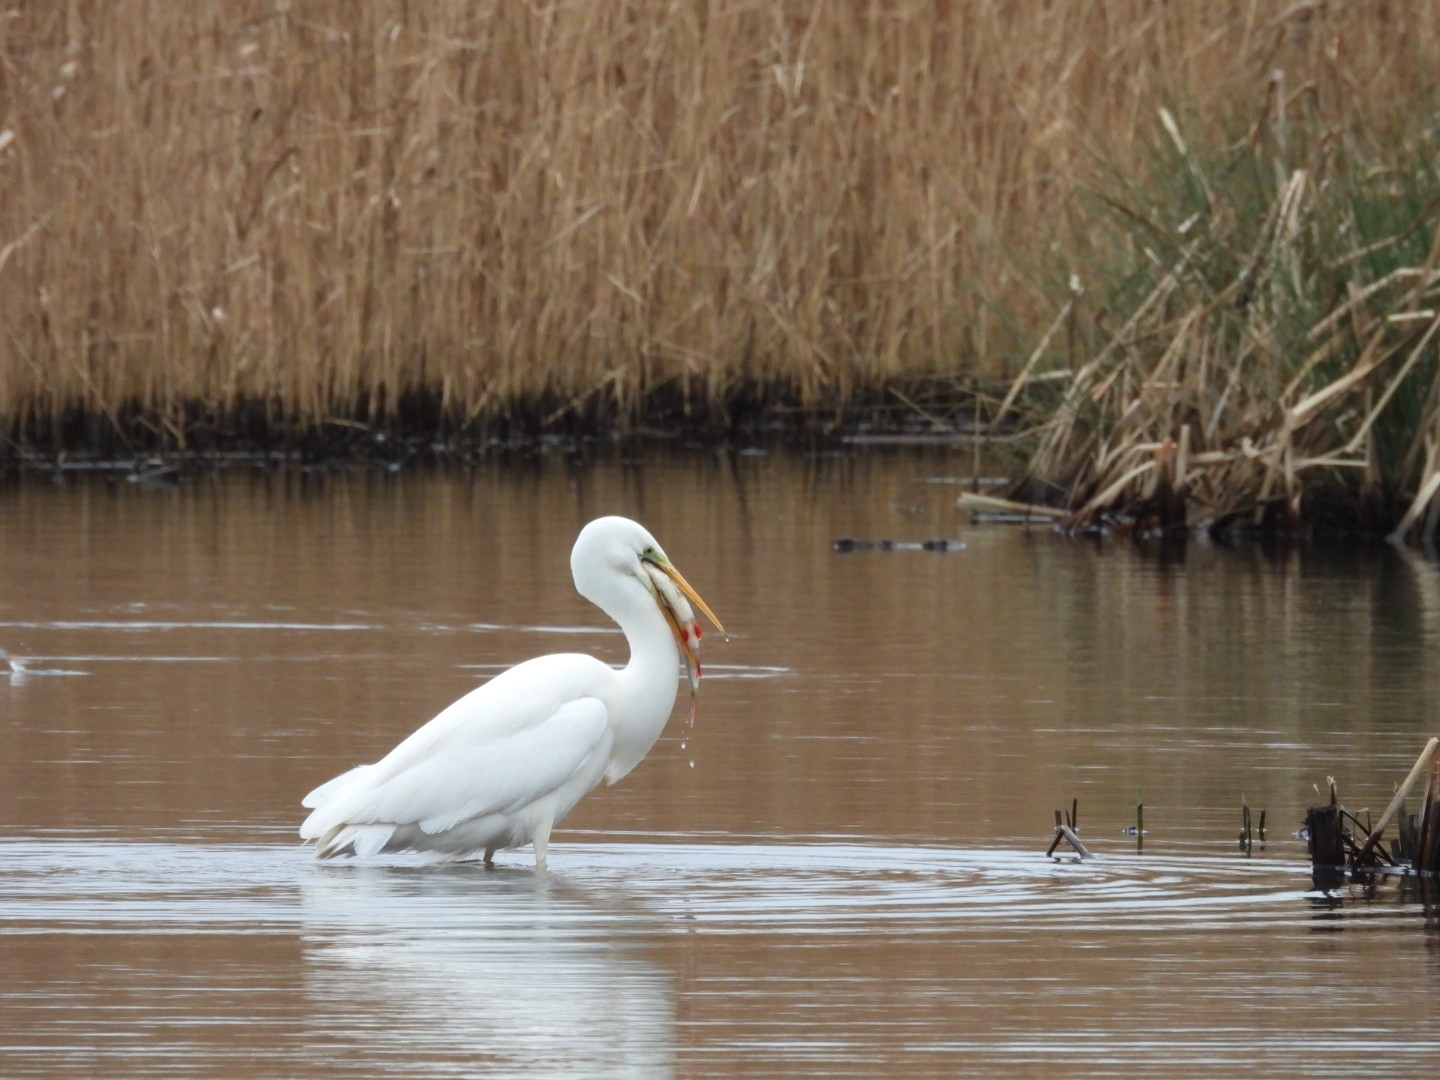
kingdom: Animalia
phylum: Chordata
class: Aves
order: Pelecaniformes
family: Ardeidae
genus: Ardea
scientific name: Ardea alba
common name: Great egret
